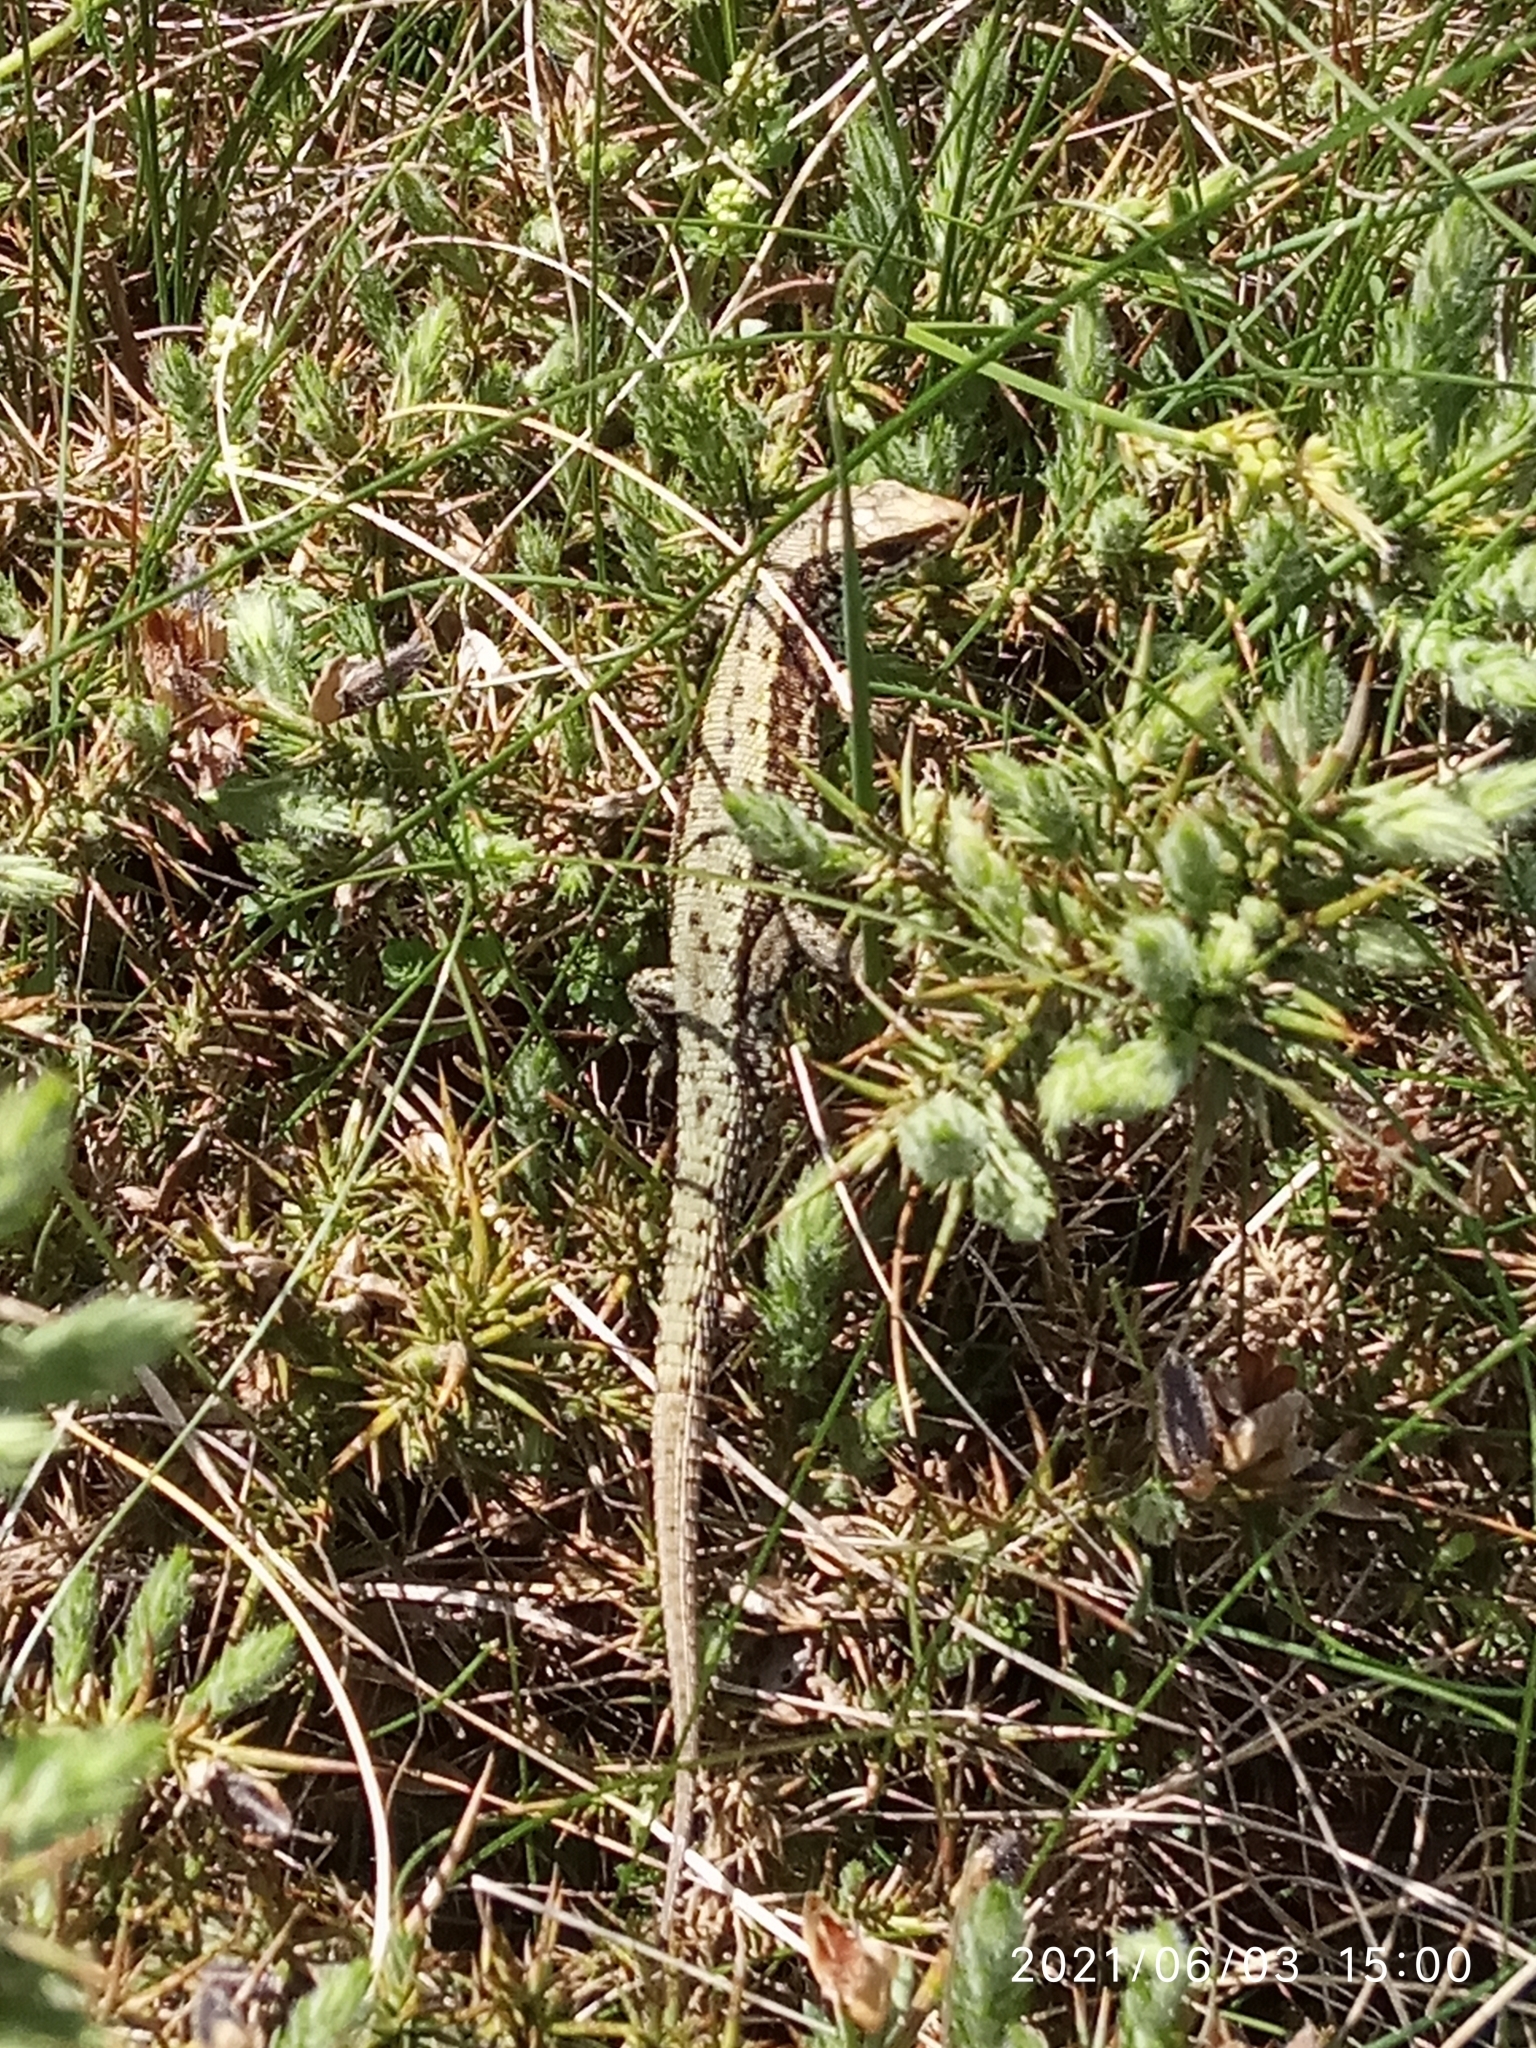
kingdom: Animalia
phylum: Chordata
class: Squamata
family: Lacertidae
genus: Zootoca
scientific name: Zootoca vivipara
